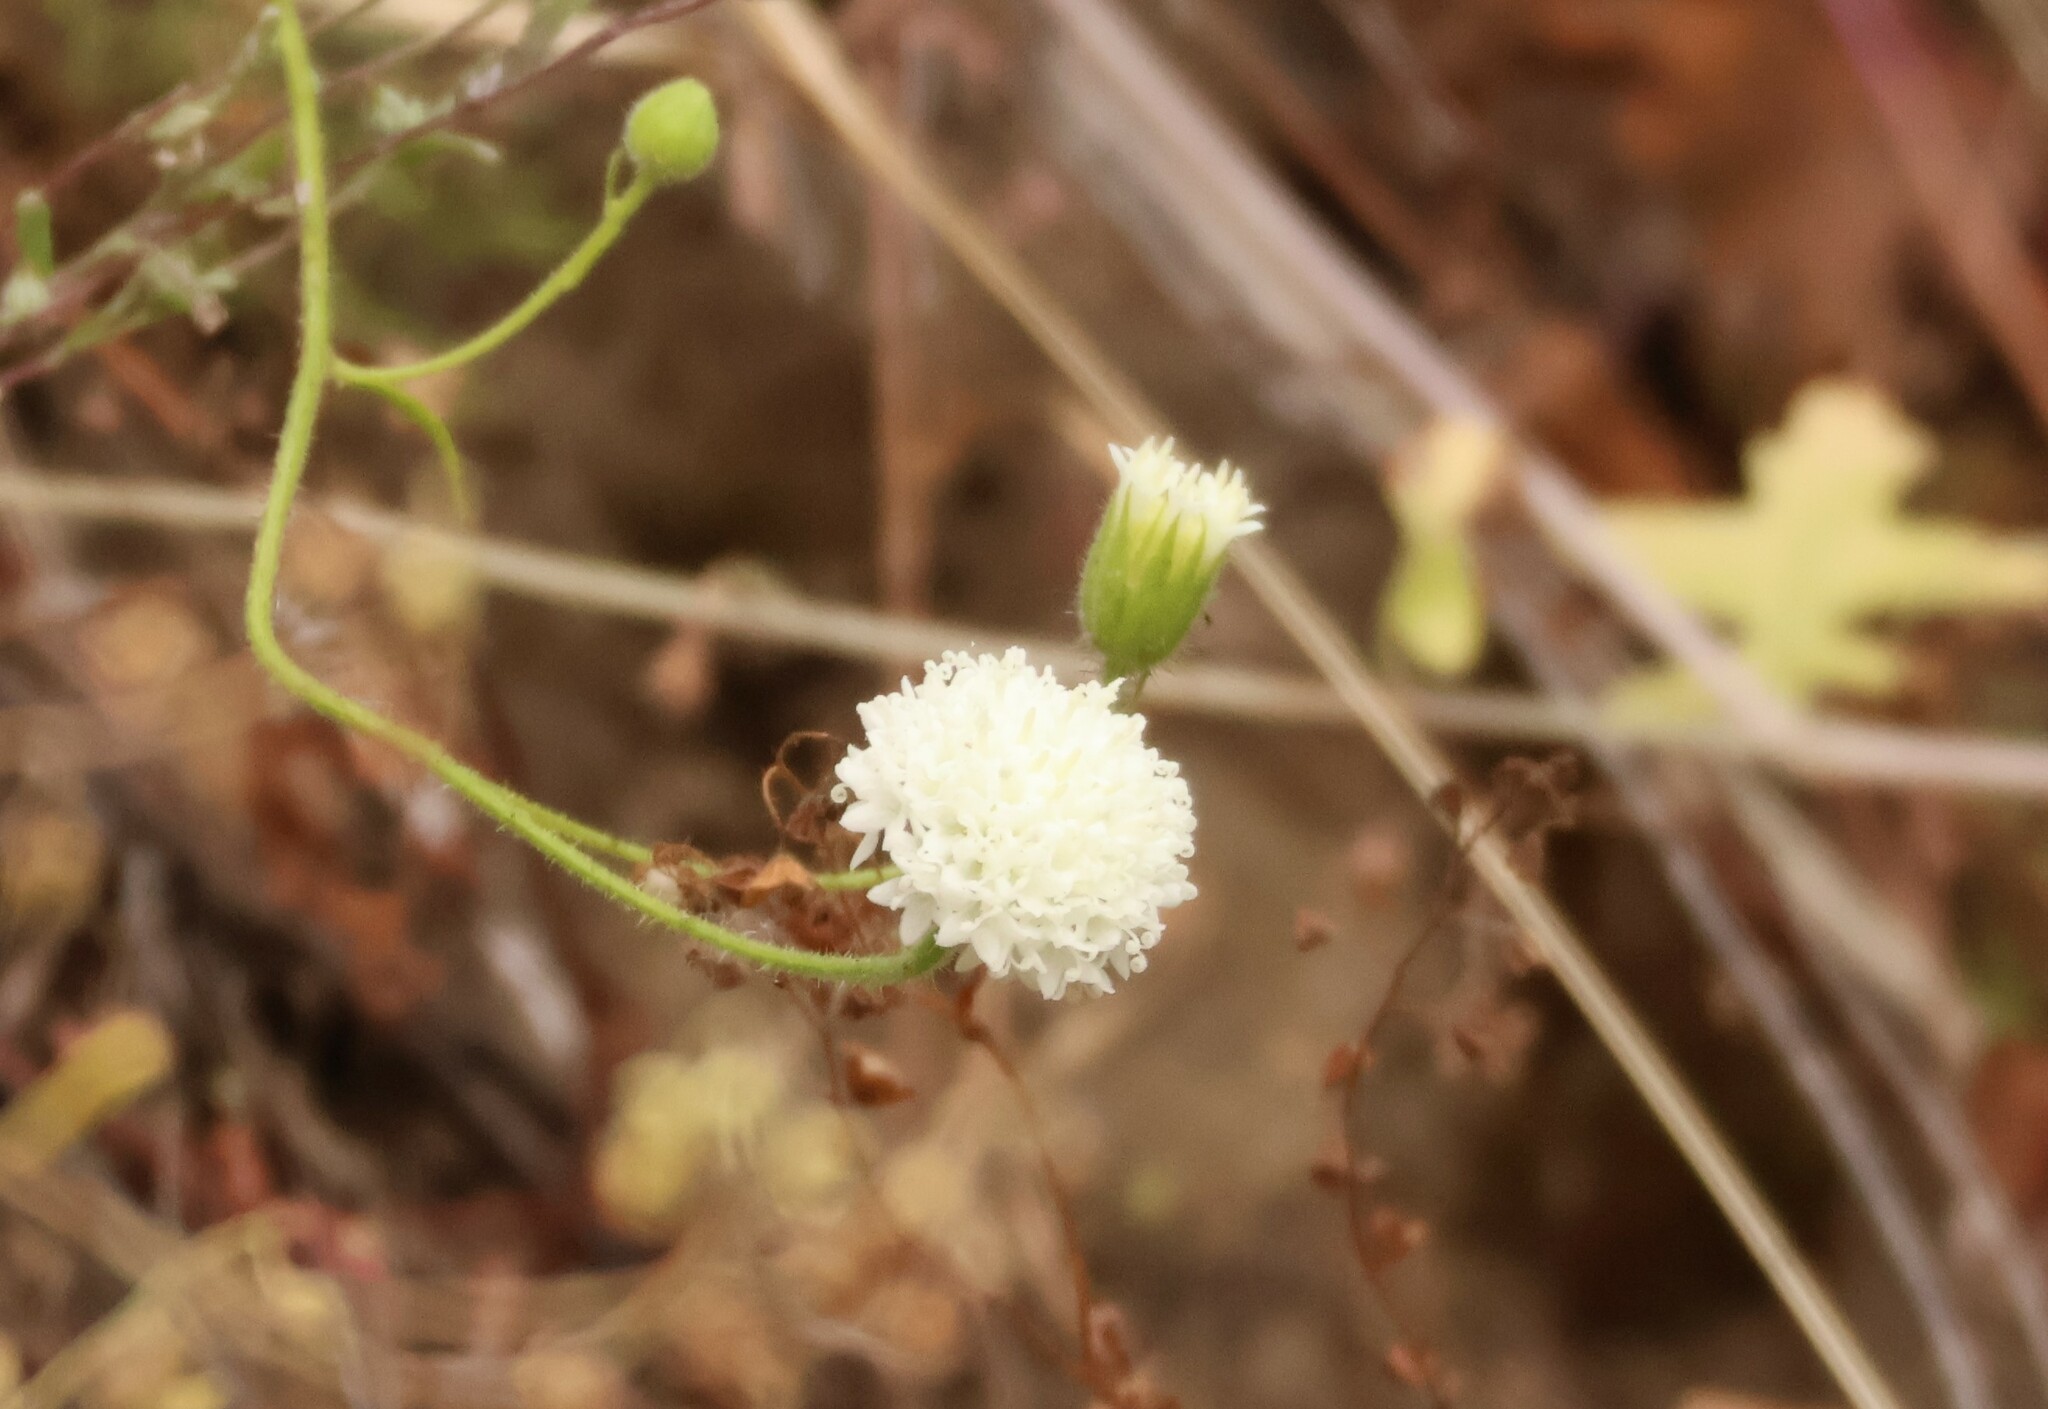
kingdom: Plantae
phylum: Tracheophyta
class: Magnoliopsida
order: Asterales
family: Asteraceae
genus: Chaenactis
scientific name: Chaenactis artemisiifolia
